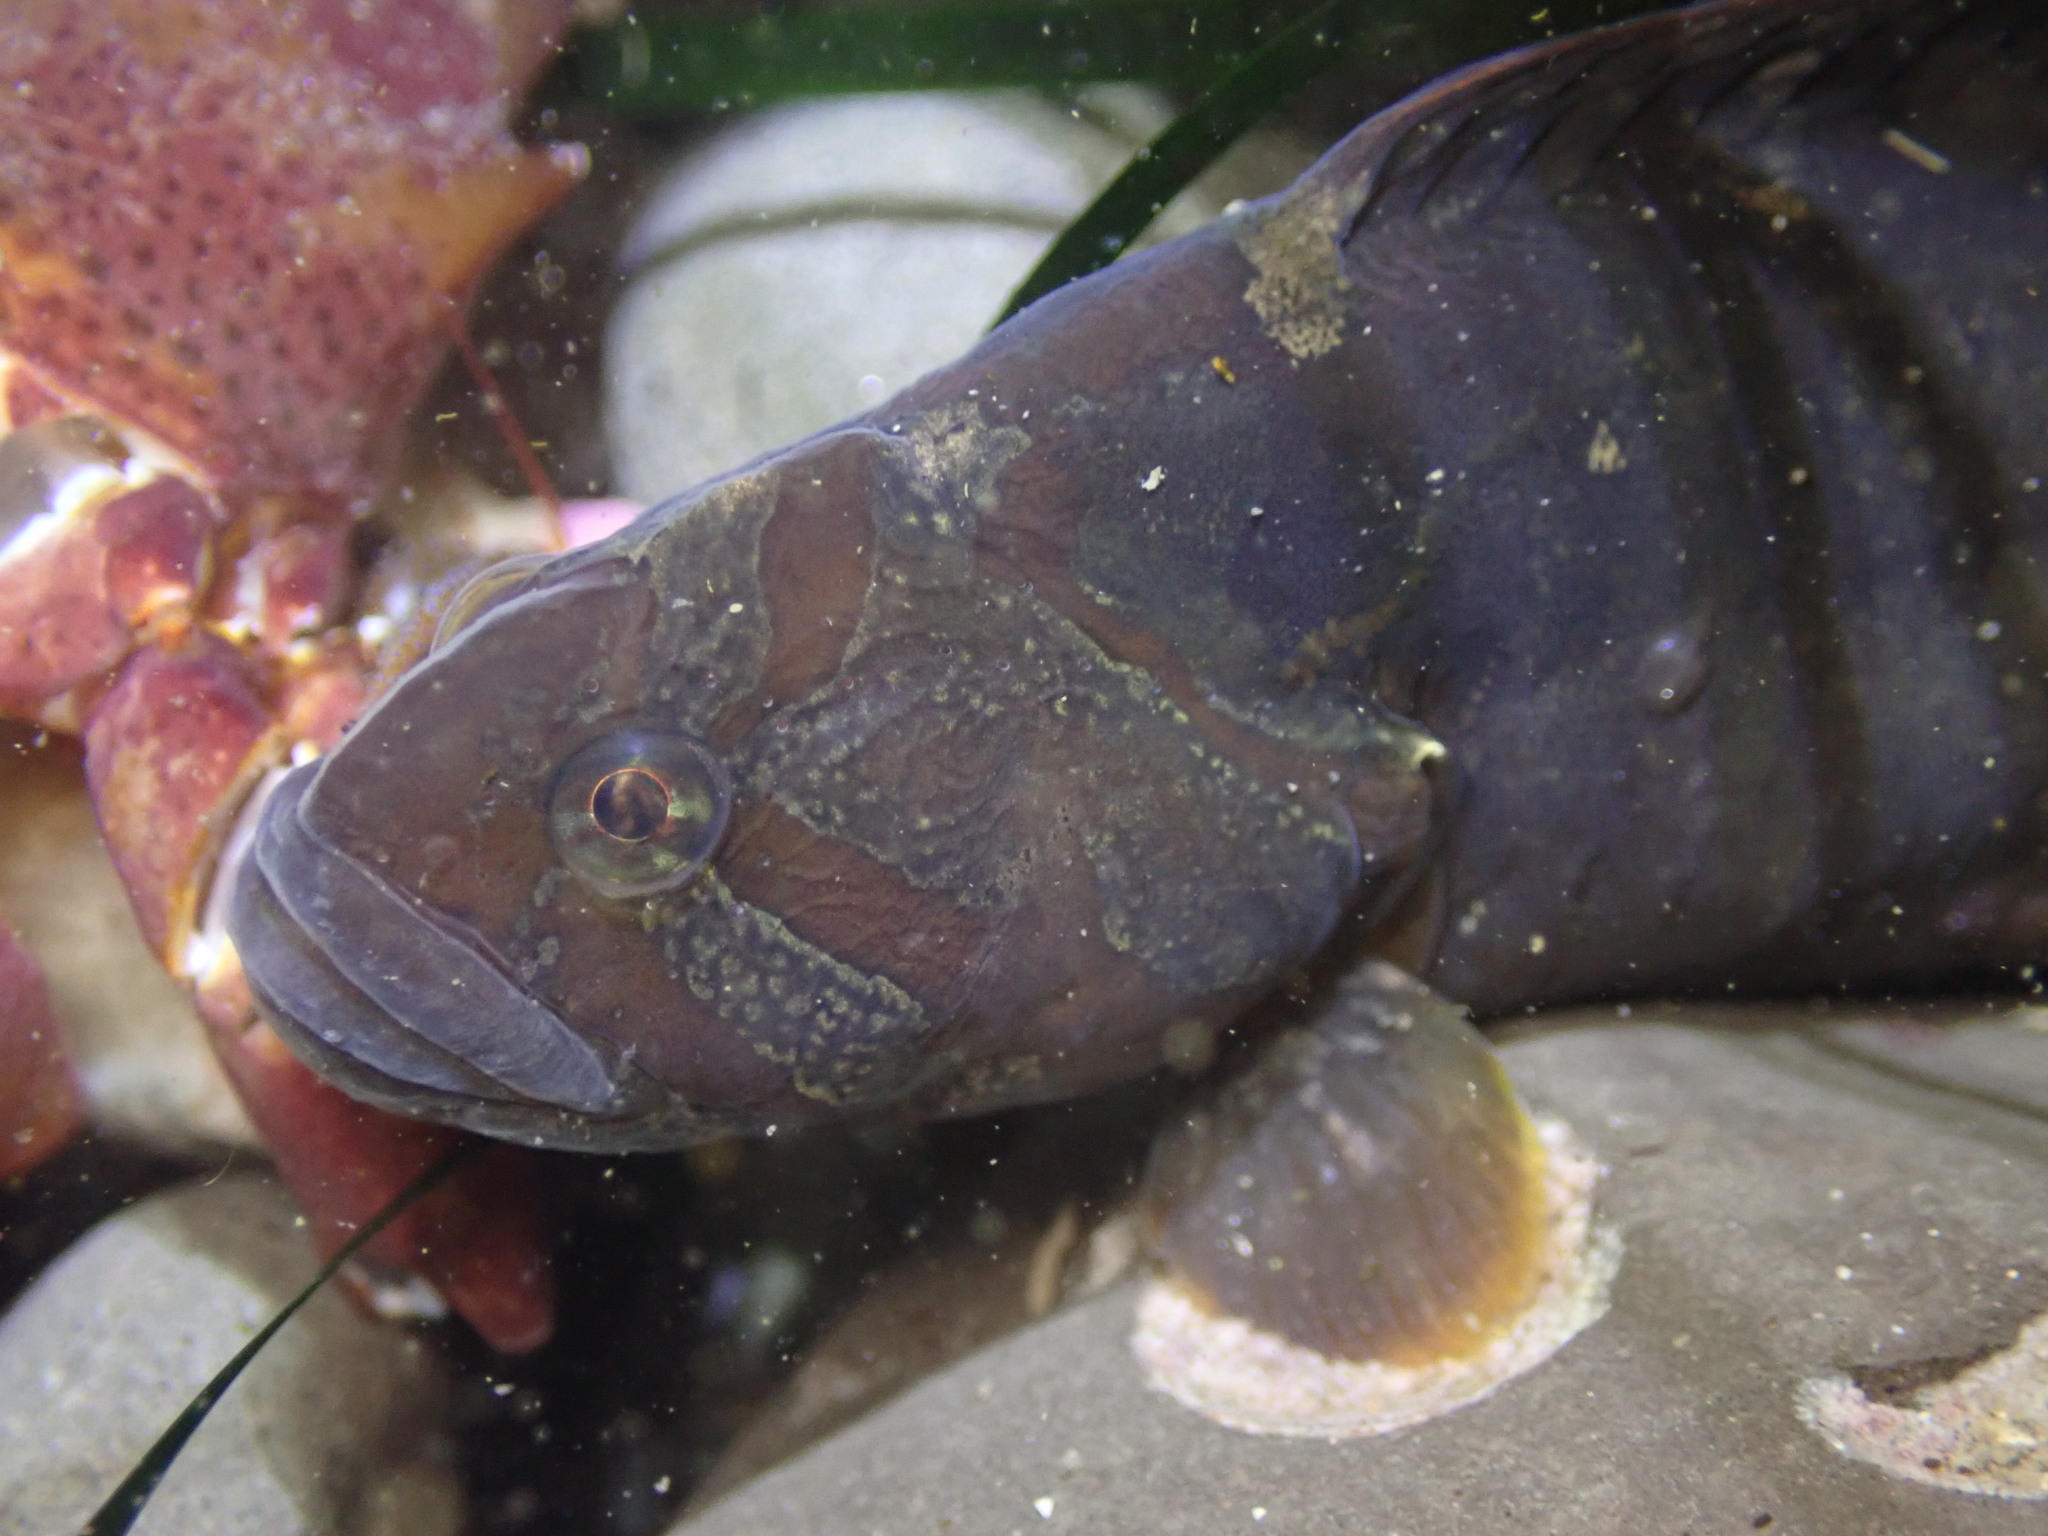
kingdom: Animalia
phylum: Chordata
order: Perciformes
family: Stichaeidae
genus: Cebidichthys
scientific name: Cebidichthys violaceus
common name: Monkeyface prickleback
